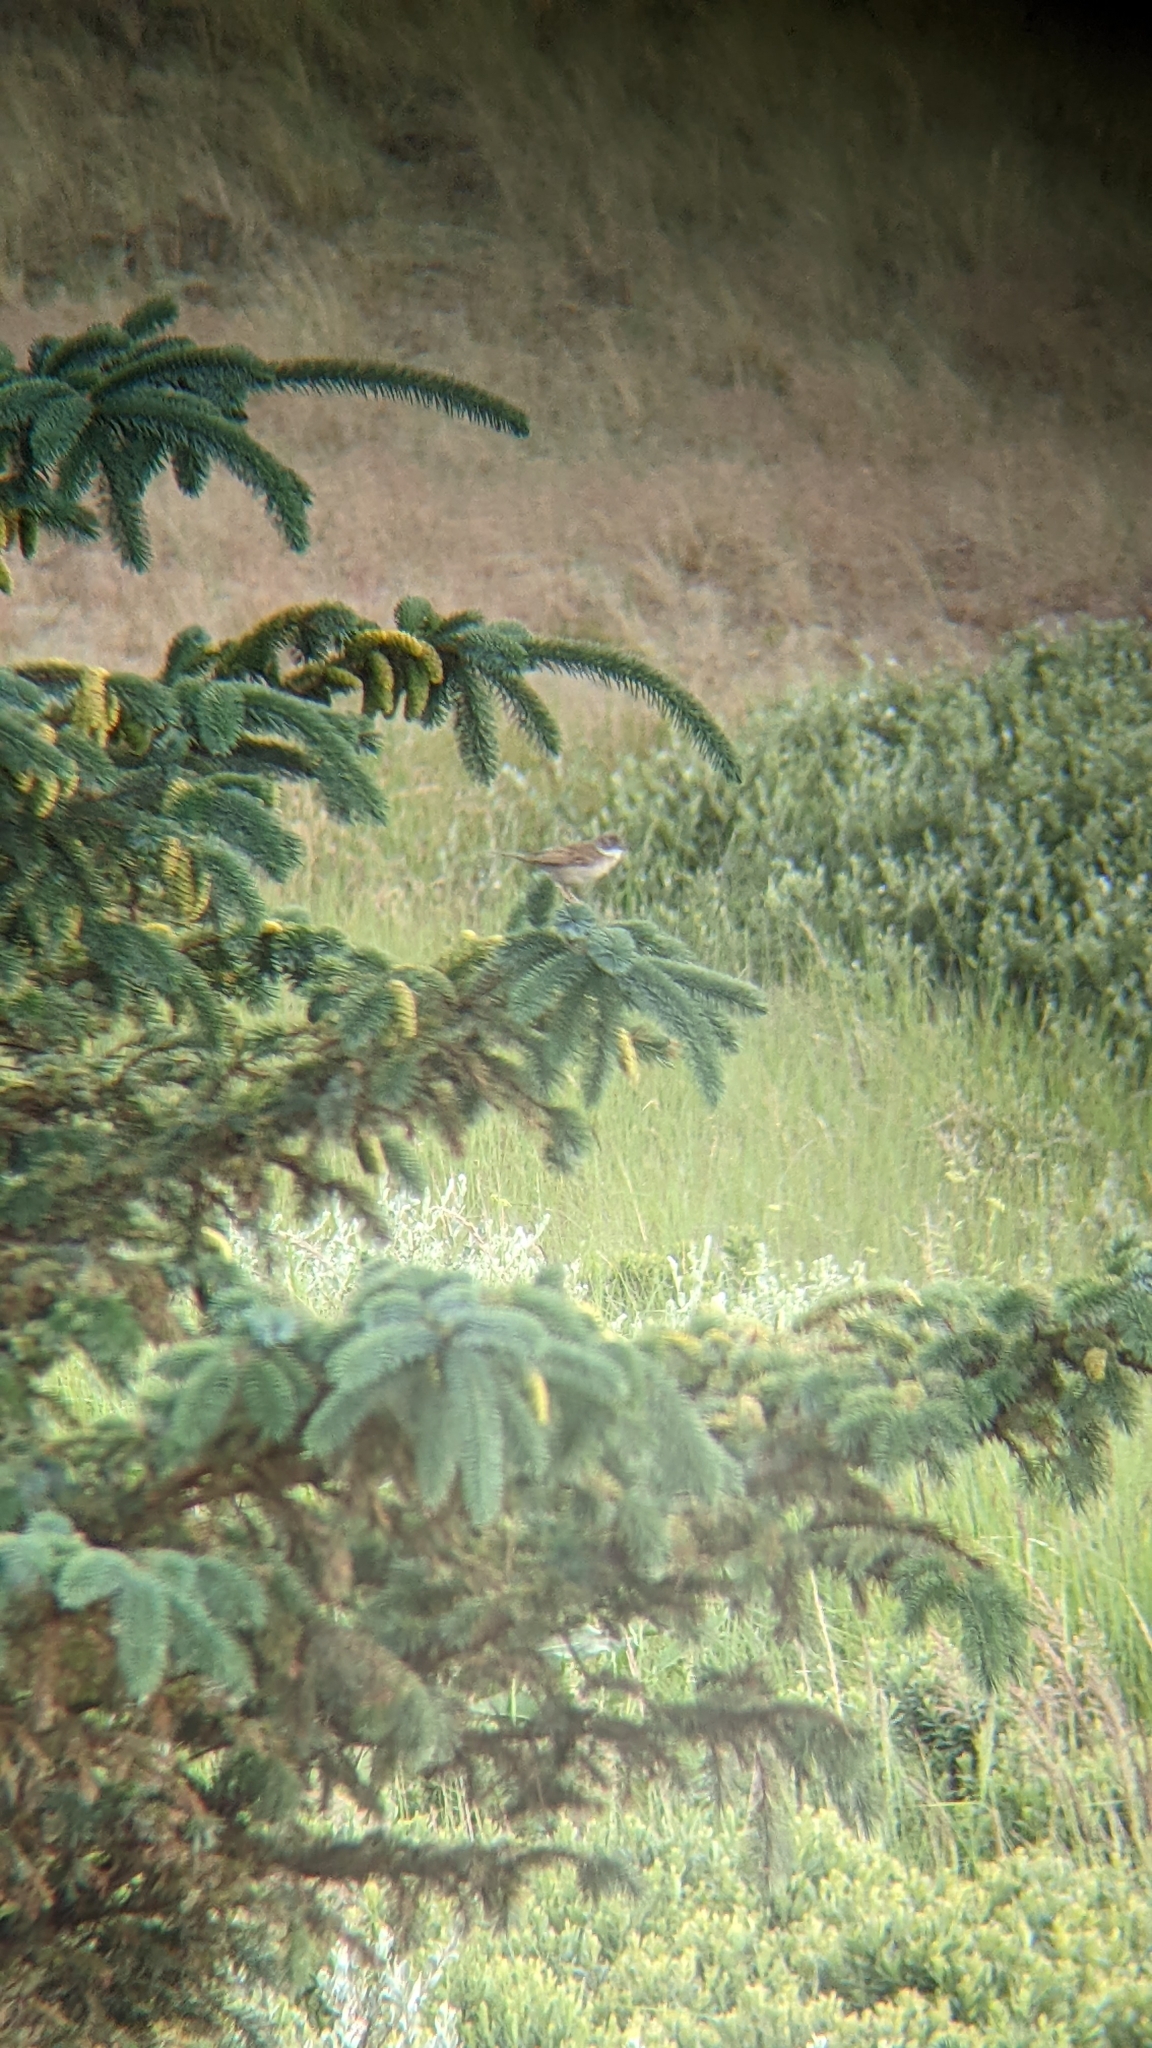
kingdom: Animalia
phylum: Chordata
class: Aves
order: Passeriformes
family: Sylviidae
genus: Sylvia
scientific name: Sylvia communis
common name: Common whitethroat
